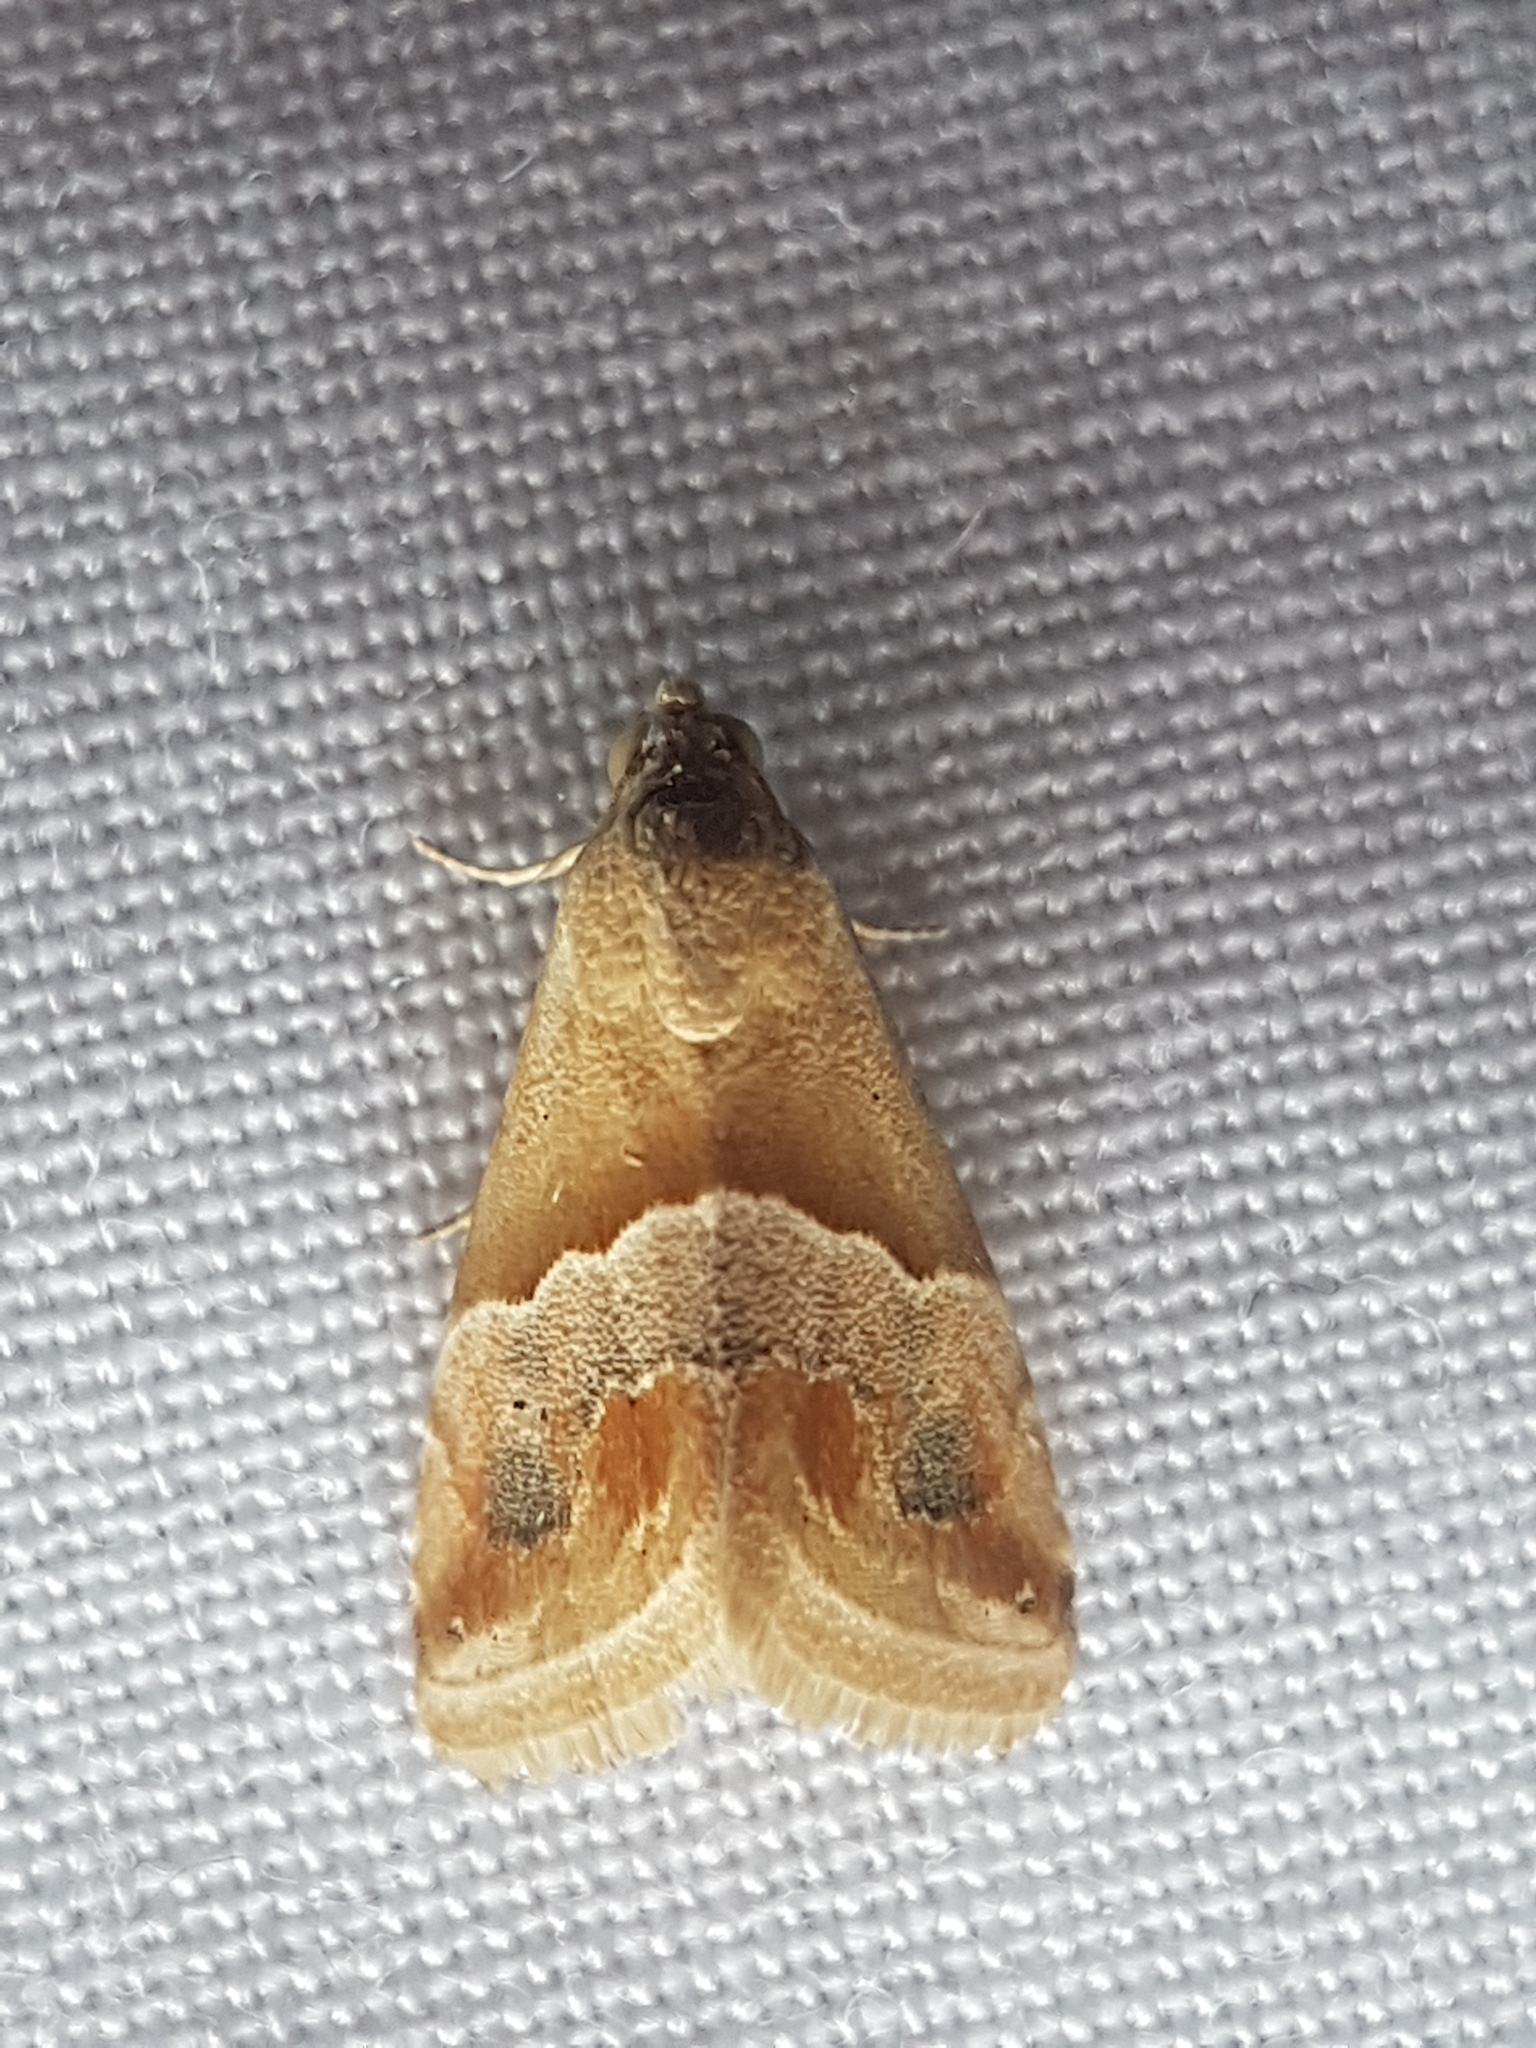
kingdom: Animalia
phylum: Arthropoda
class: Insecta
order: Lepidoptera
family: Noctuidae
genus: Eublemma
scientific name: Eublemma parva
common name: Small marbled
